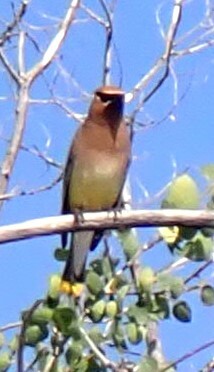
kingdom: Animalia
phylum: Chordata
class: Aves
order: Passeriformes
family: Bombycillidae
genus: Bombycilla
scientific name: Bombycilla cedrorum
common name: Cedar waxwing
